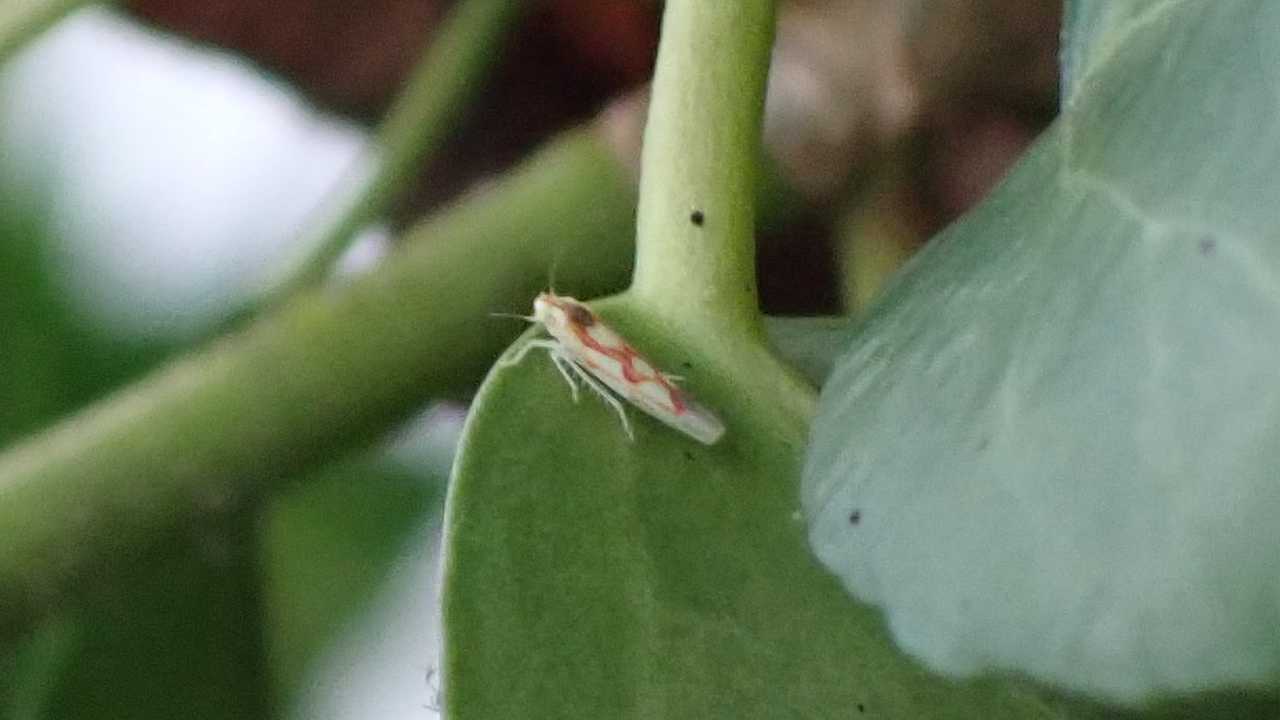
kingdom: Animalia
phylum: Arthropoda
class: Insecta
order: Hemiptera
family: Cicadellidae
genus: Zygina
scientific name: Zygina flammigera
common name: Leafhopper
